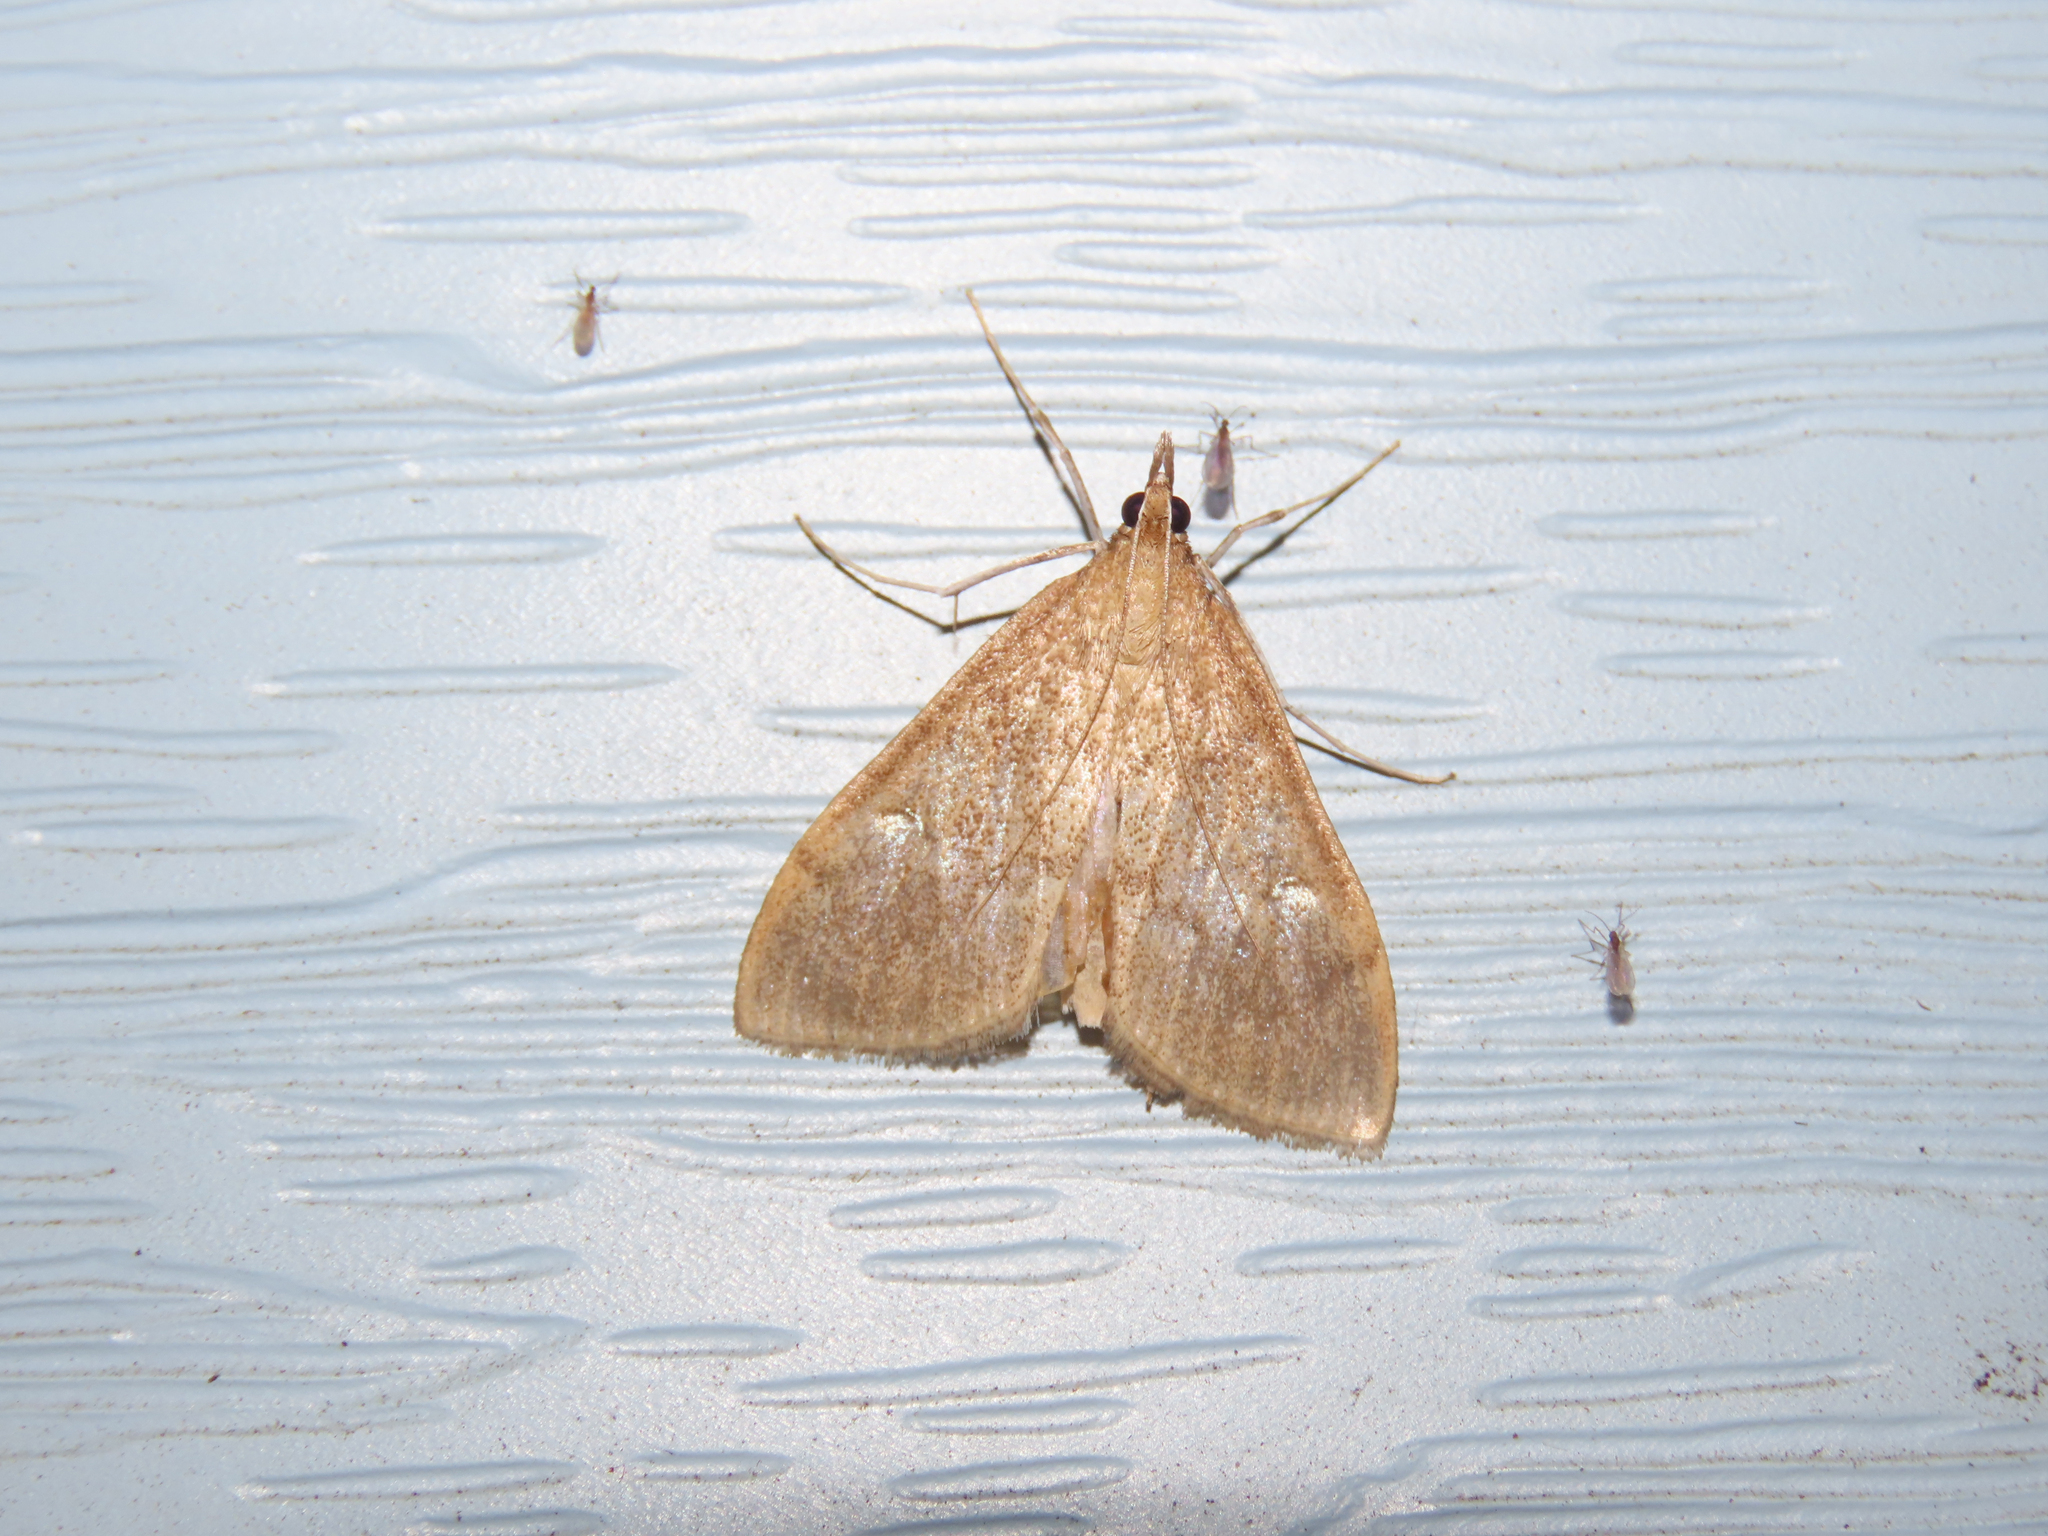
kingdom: Animalia
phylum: Arthropoda
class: Insecta
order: Lepidoptera
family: Crambidae
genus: Saucrobotys
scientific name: Saucrobotys futilalis
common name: Dogbane saucrobotys moth
